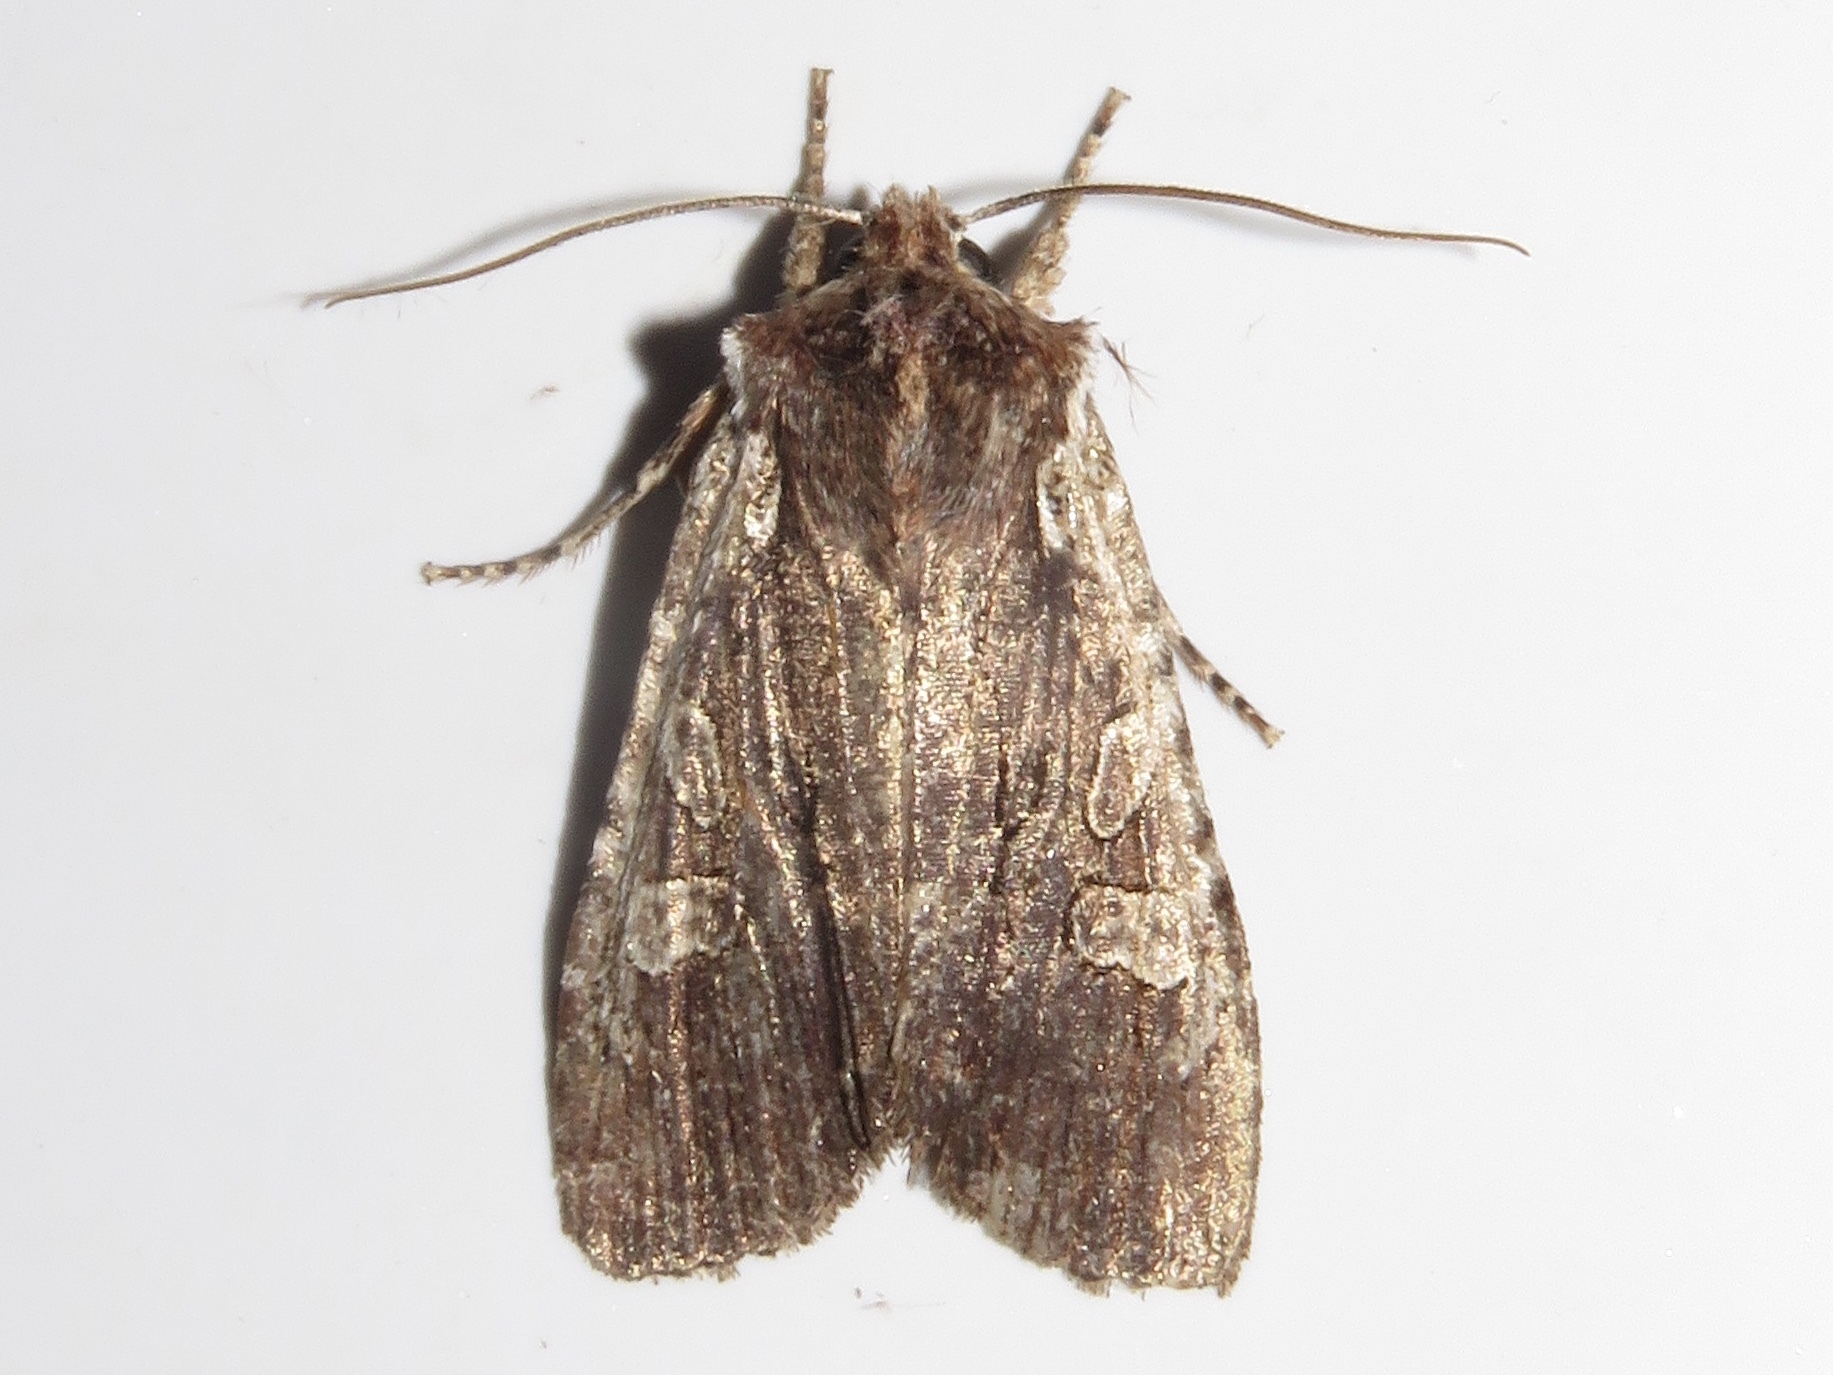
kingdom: Animalia
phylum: Arthropoda
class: Insecta
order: Lepidoptera
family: Noctuidae
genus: Lithophane
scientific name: Lithophane oriunda
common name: Immigrant pinion moth
